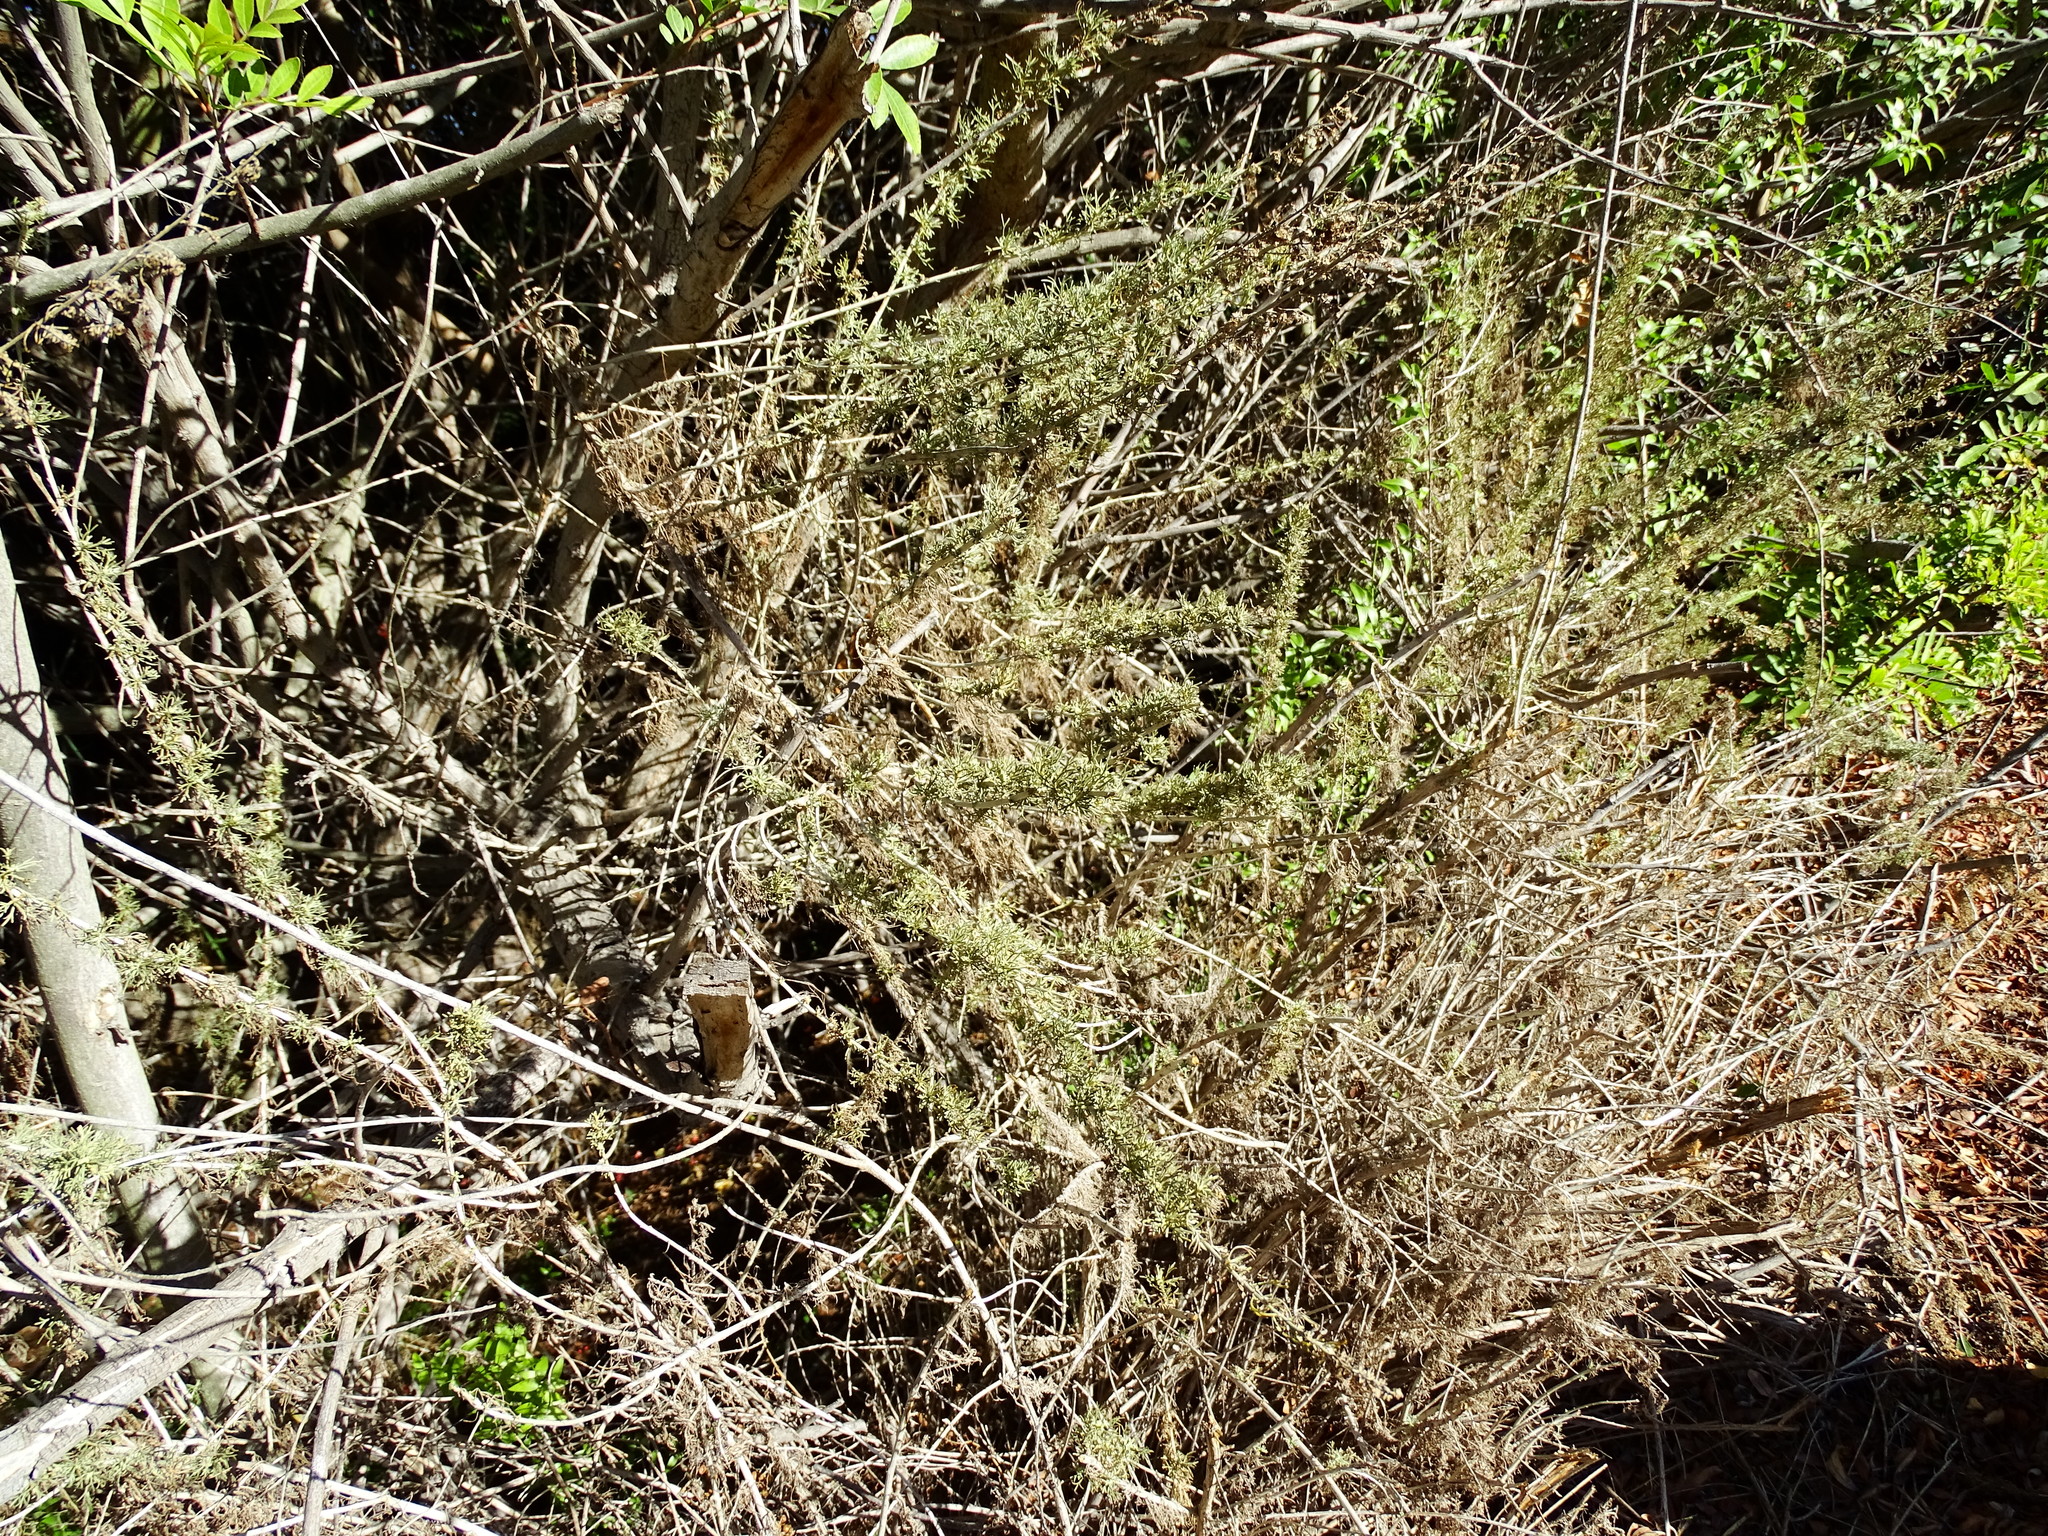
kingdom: Plantae
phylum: Tracheophyta
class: Magnoliopsida
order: Asterales
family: Asteraceae
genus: Artemisia
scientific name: Artemisia californica
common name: California sagebrush
